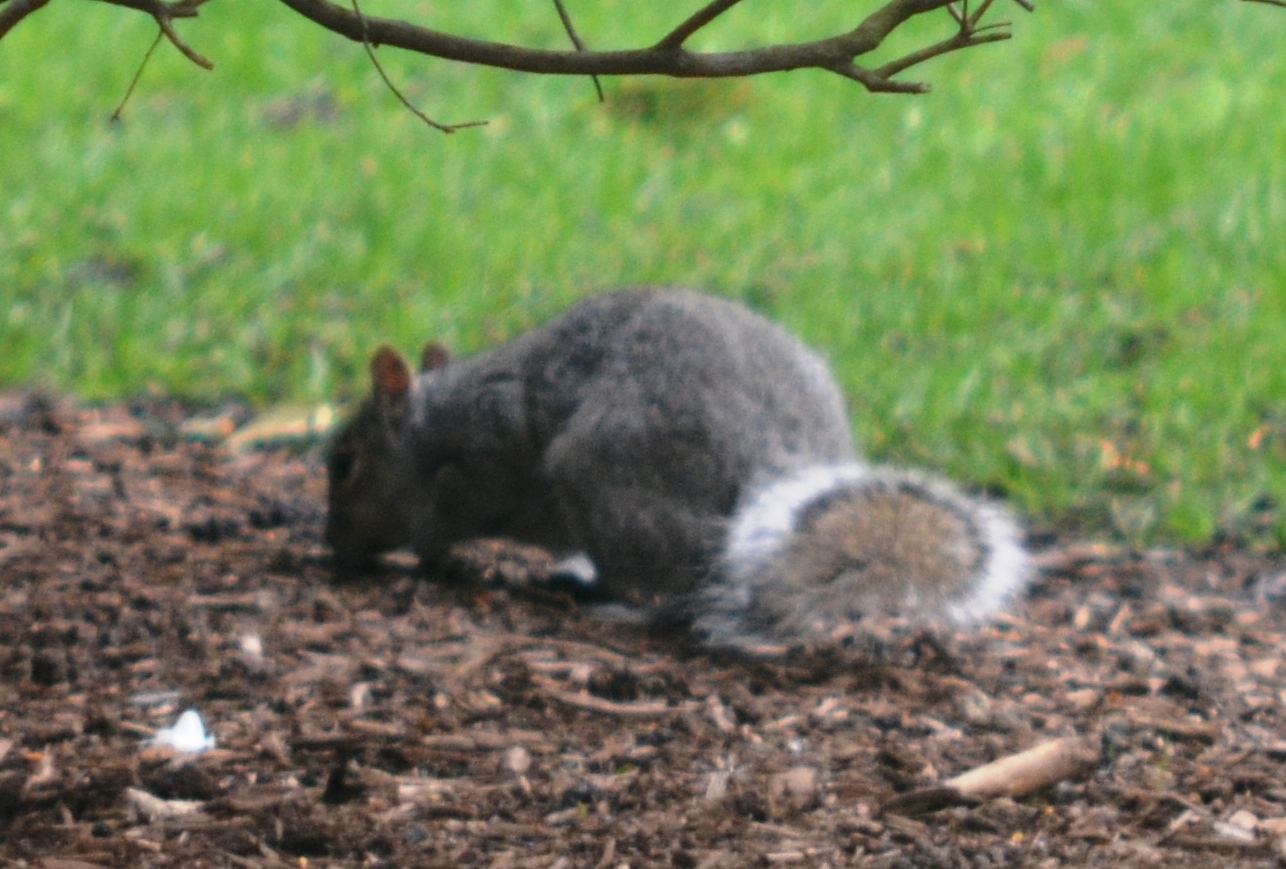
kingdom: Animalia
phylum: Chordata
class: Mammalia
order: Rodentia
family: Sciuridae
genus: Sciurus
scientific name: Sciurus carolinensis
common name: Eastern gray squirrel
